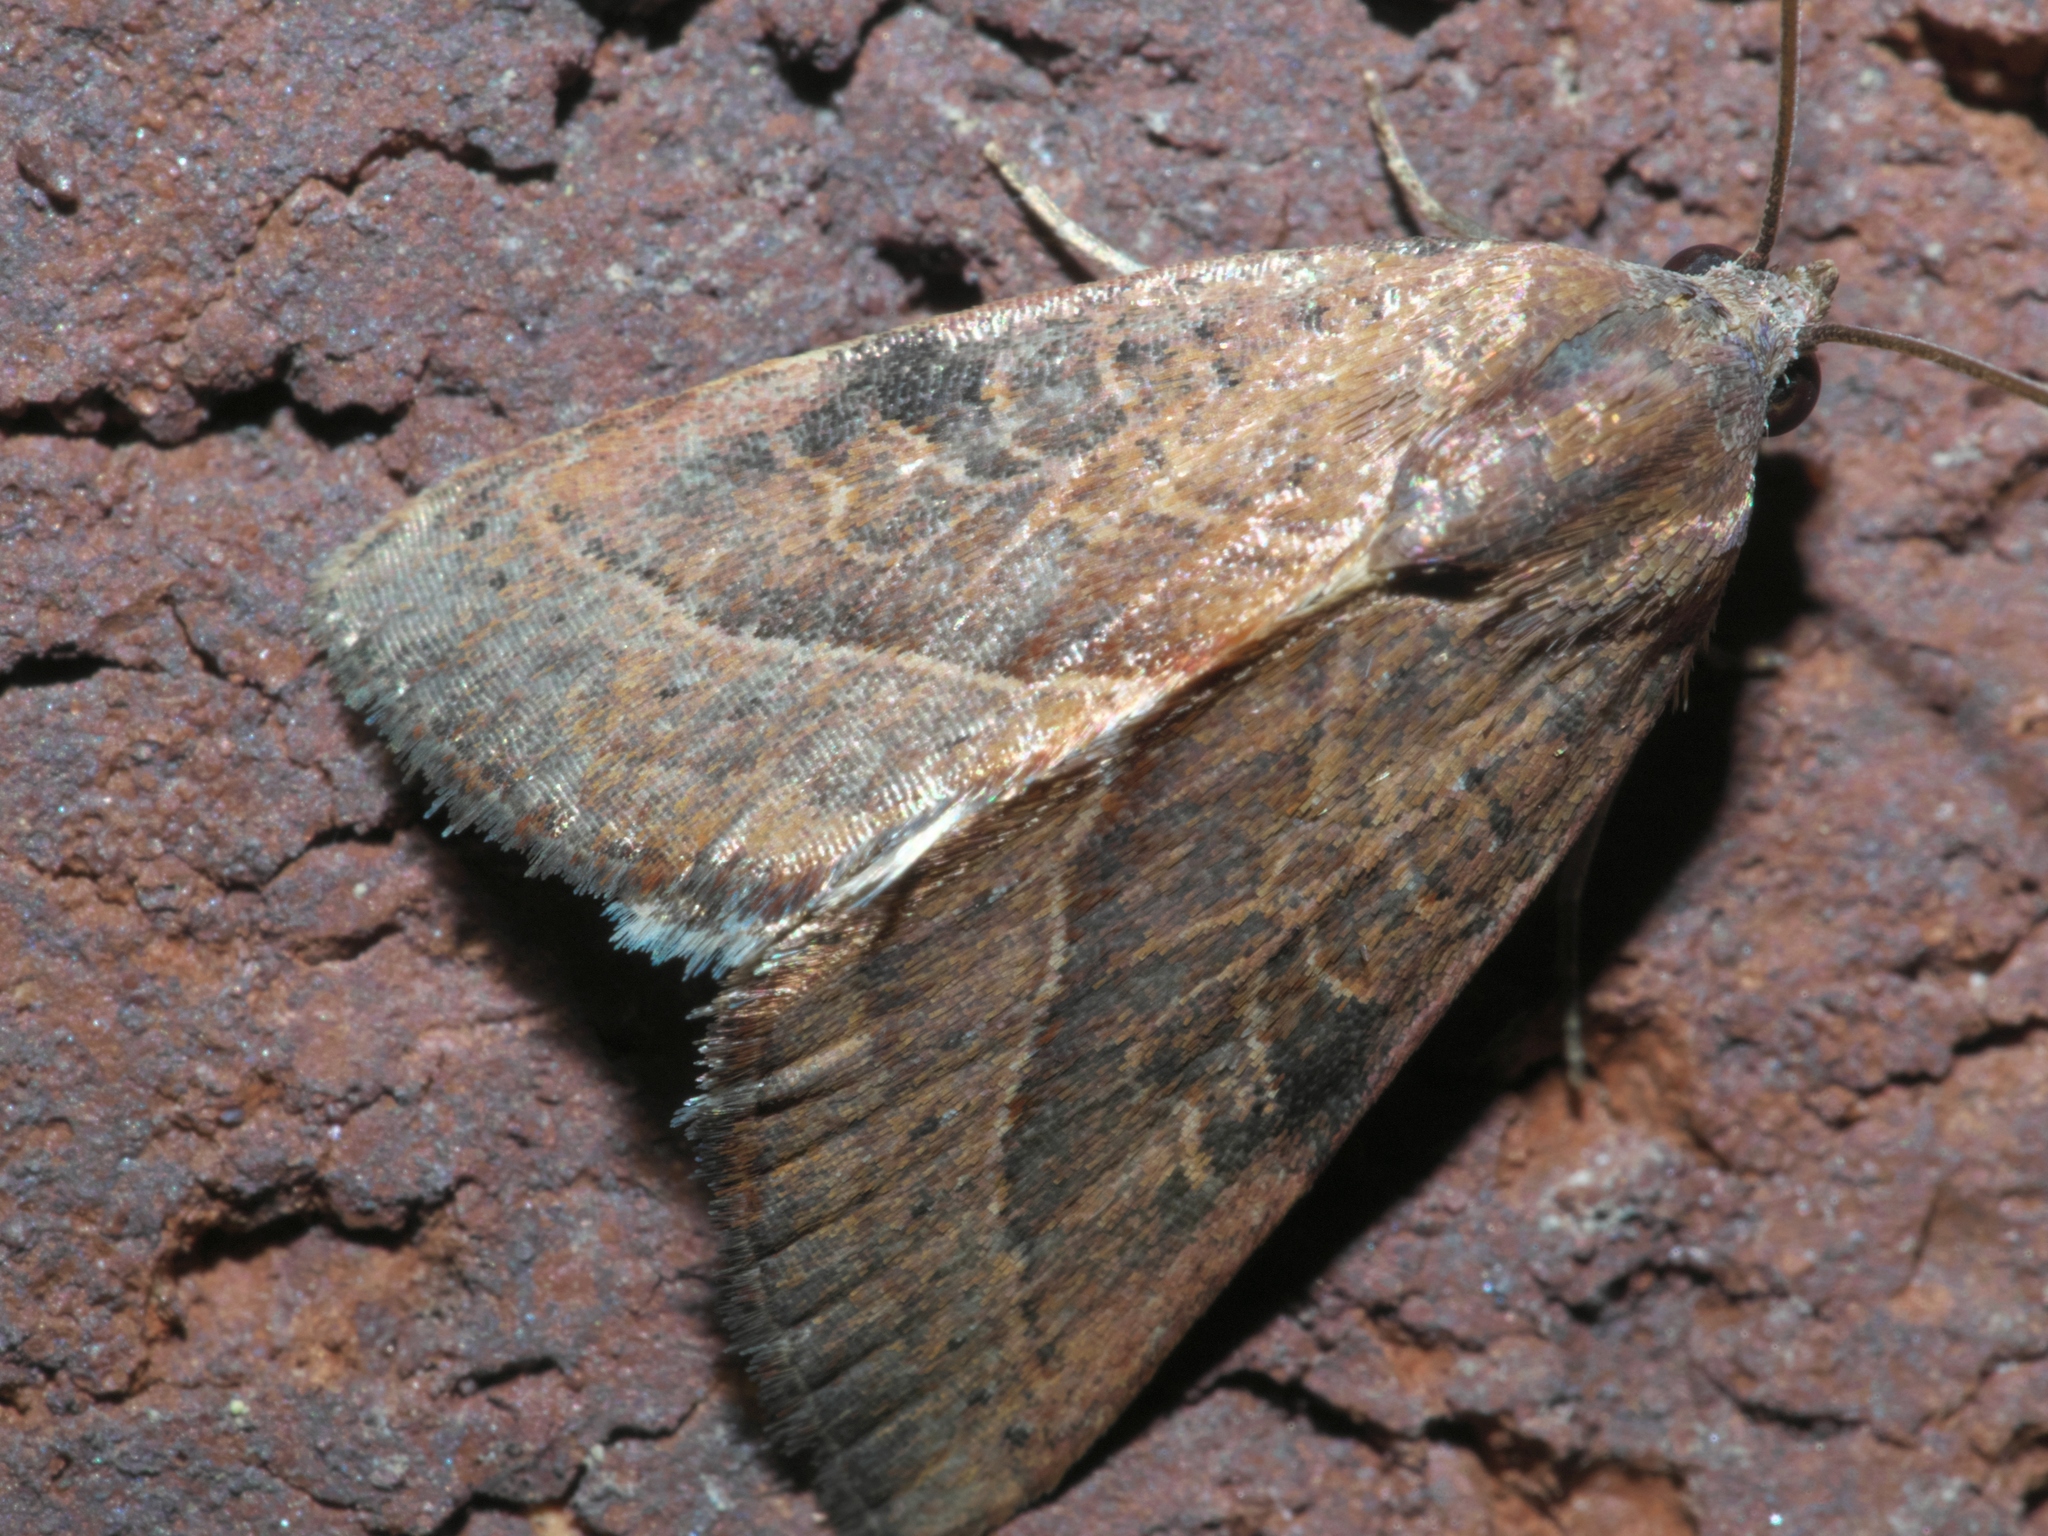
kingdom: Animalia
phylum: Arthropoda
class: Insecta
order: Lepidoptera
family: Noctuidae
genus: Galgula
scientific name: Galgula partita
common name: Wedgeling
